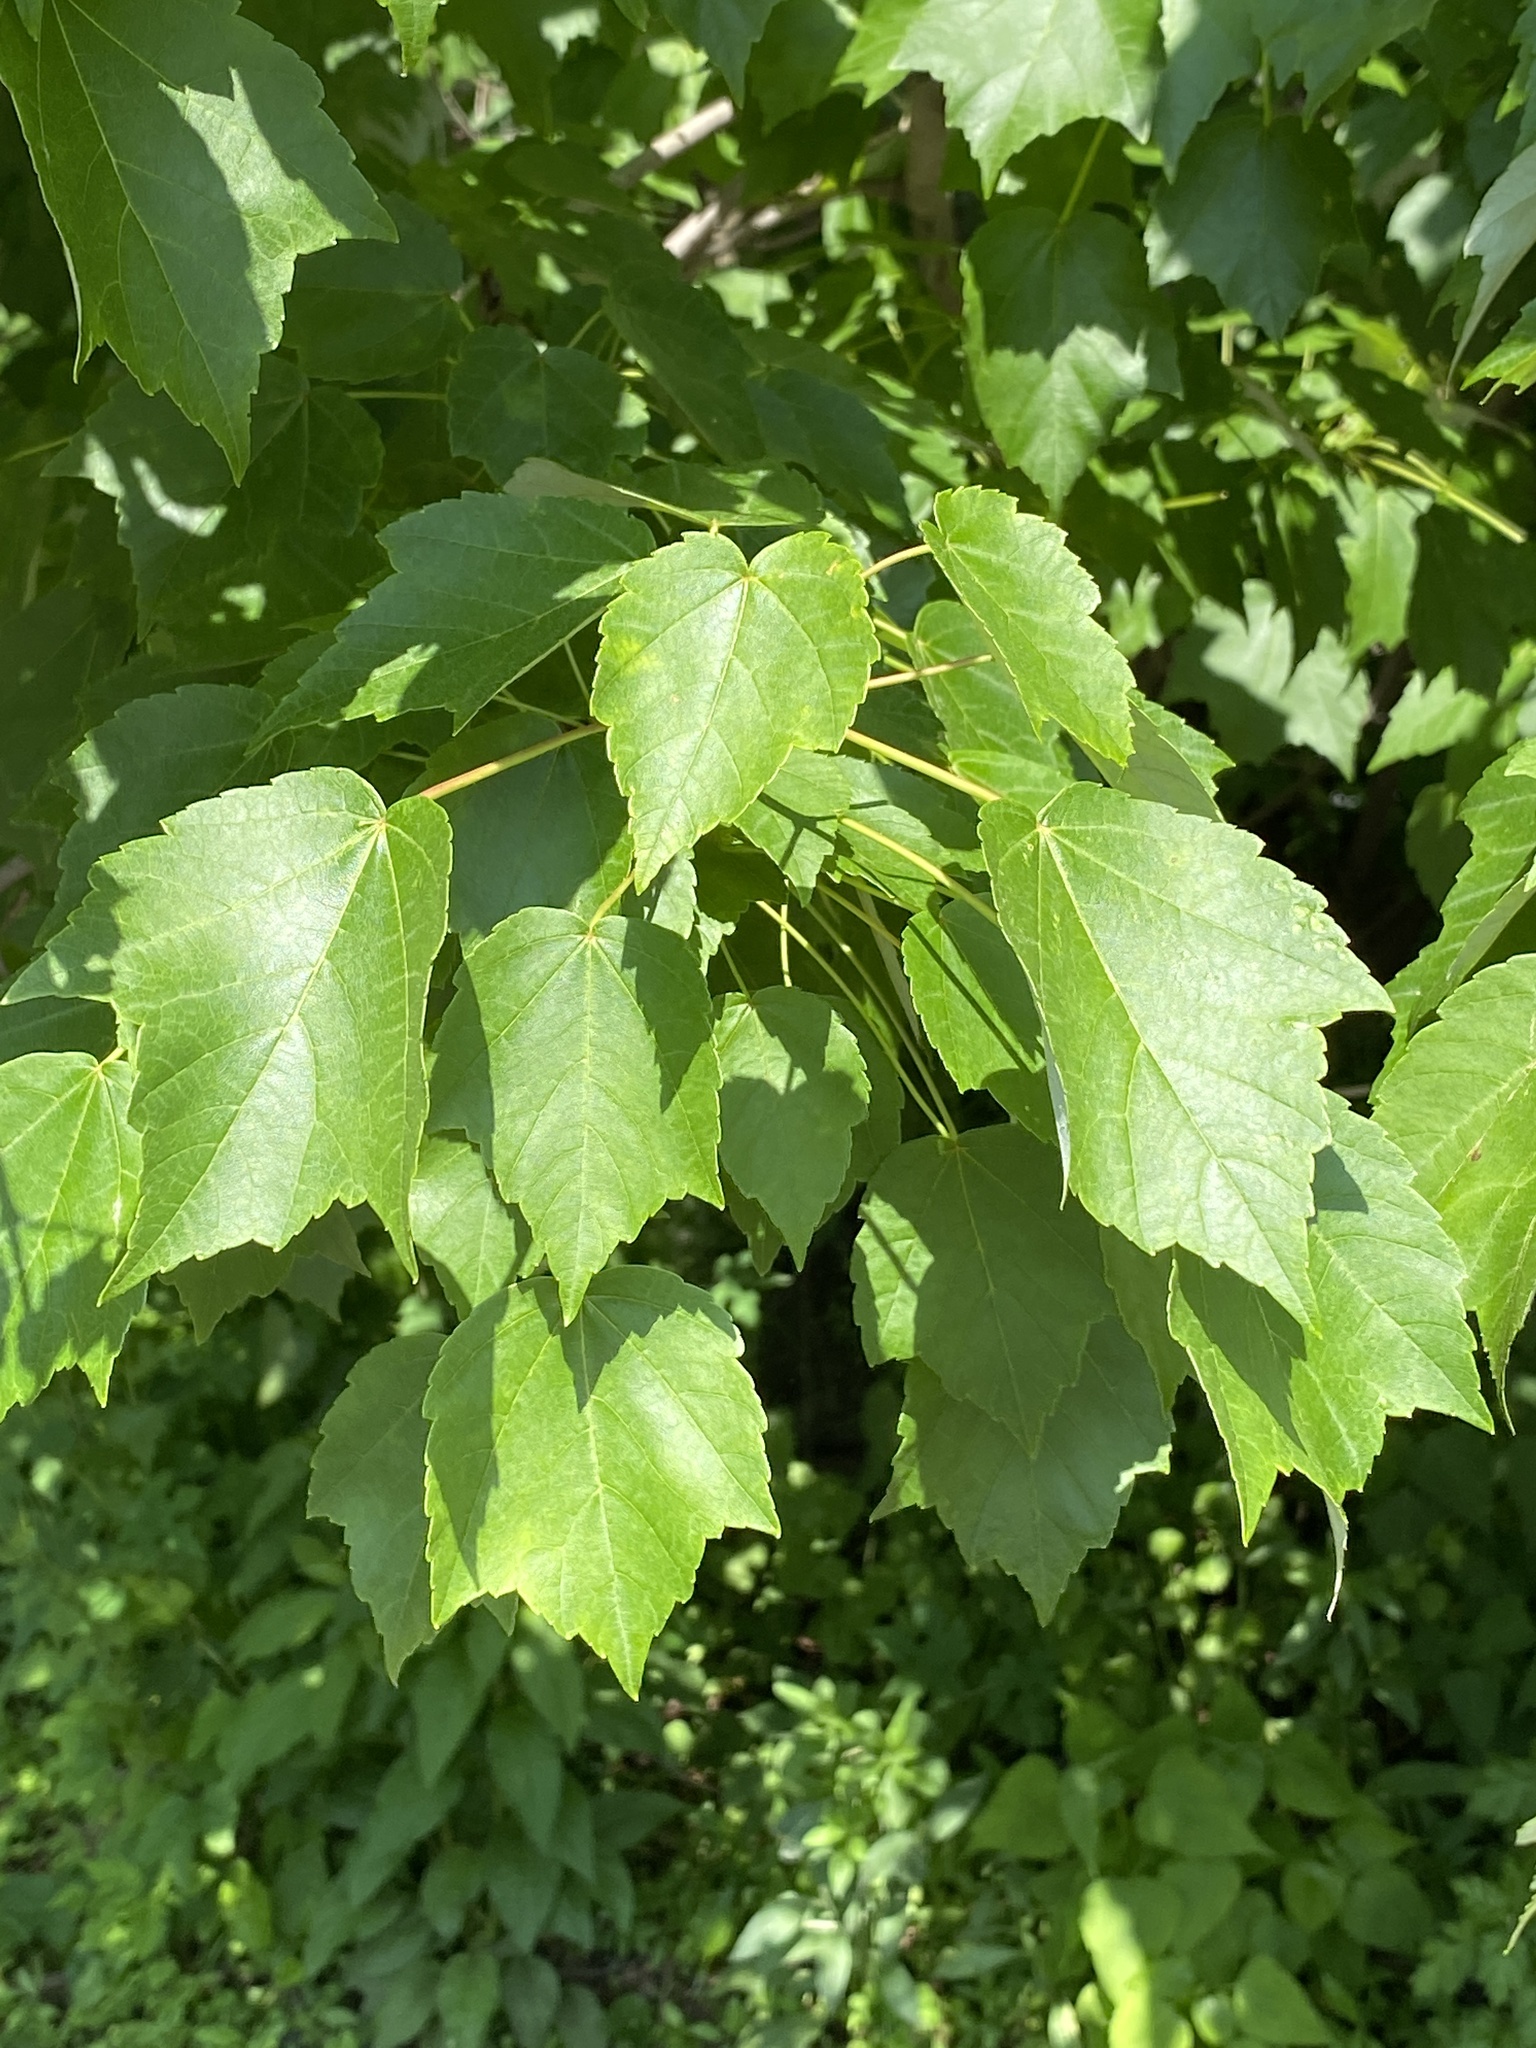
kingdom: Plantae
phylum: Tracheophyta
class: Magnoliopsida
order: Sapindales
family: Sapindaceae
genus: Acer
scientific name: Acer rubrum
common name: Red maple
